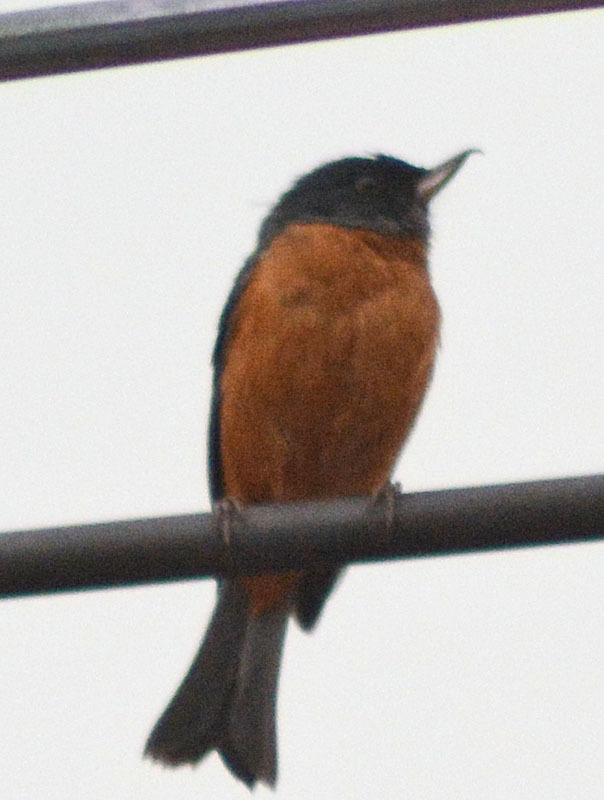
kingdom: Animalia
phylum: Chordata
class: Aves
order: Passeriformes
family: Thraupidae
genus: Diglossa
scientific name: Diglossa baritula
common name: Cinnamon-bellied flowerpiercer
